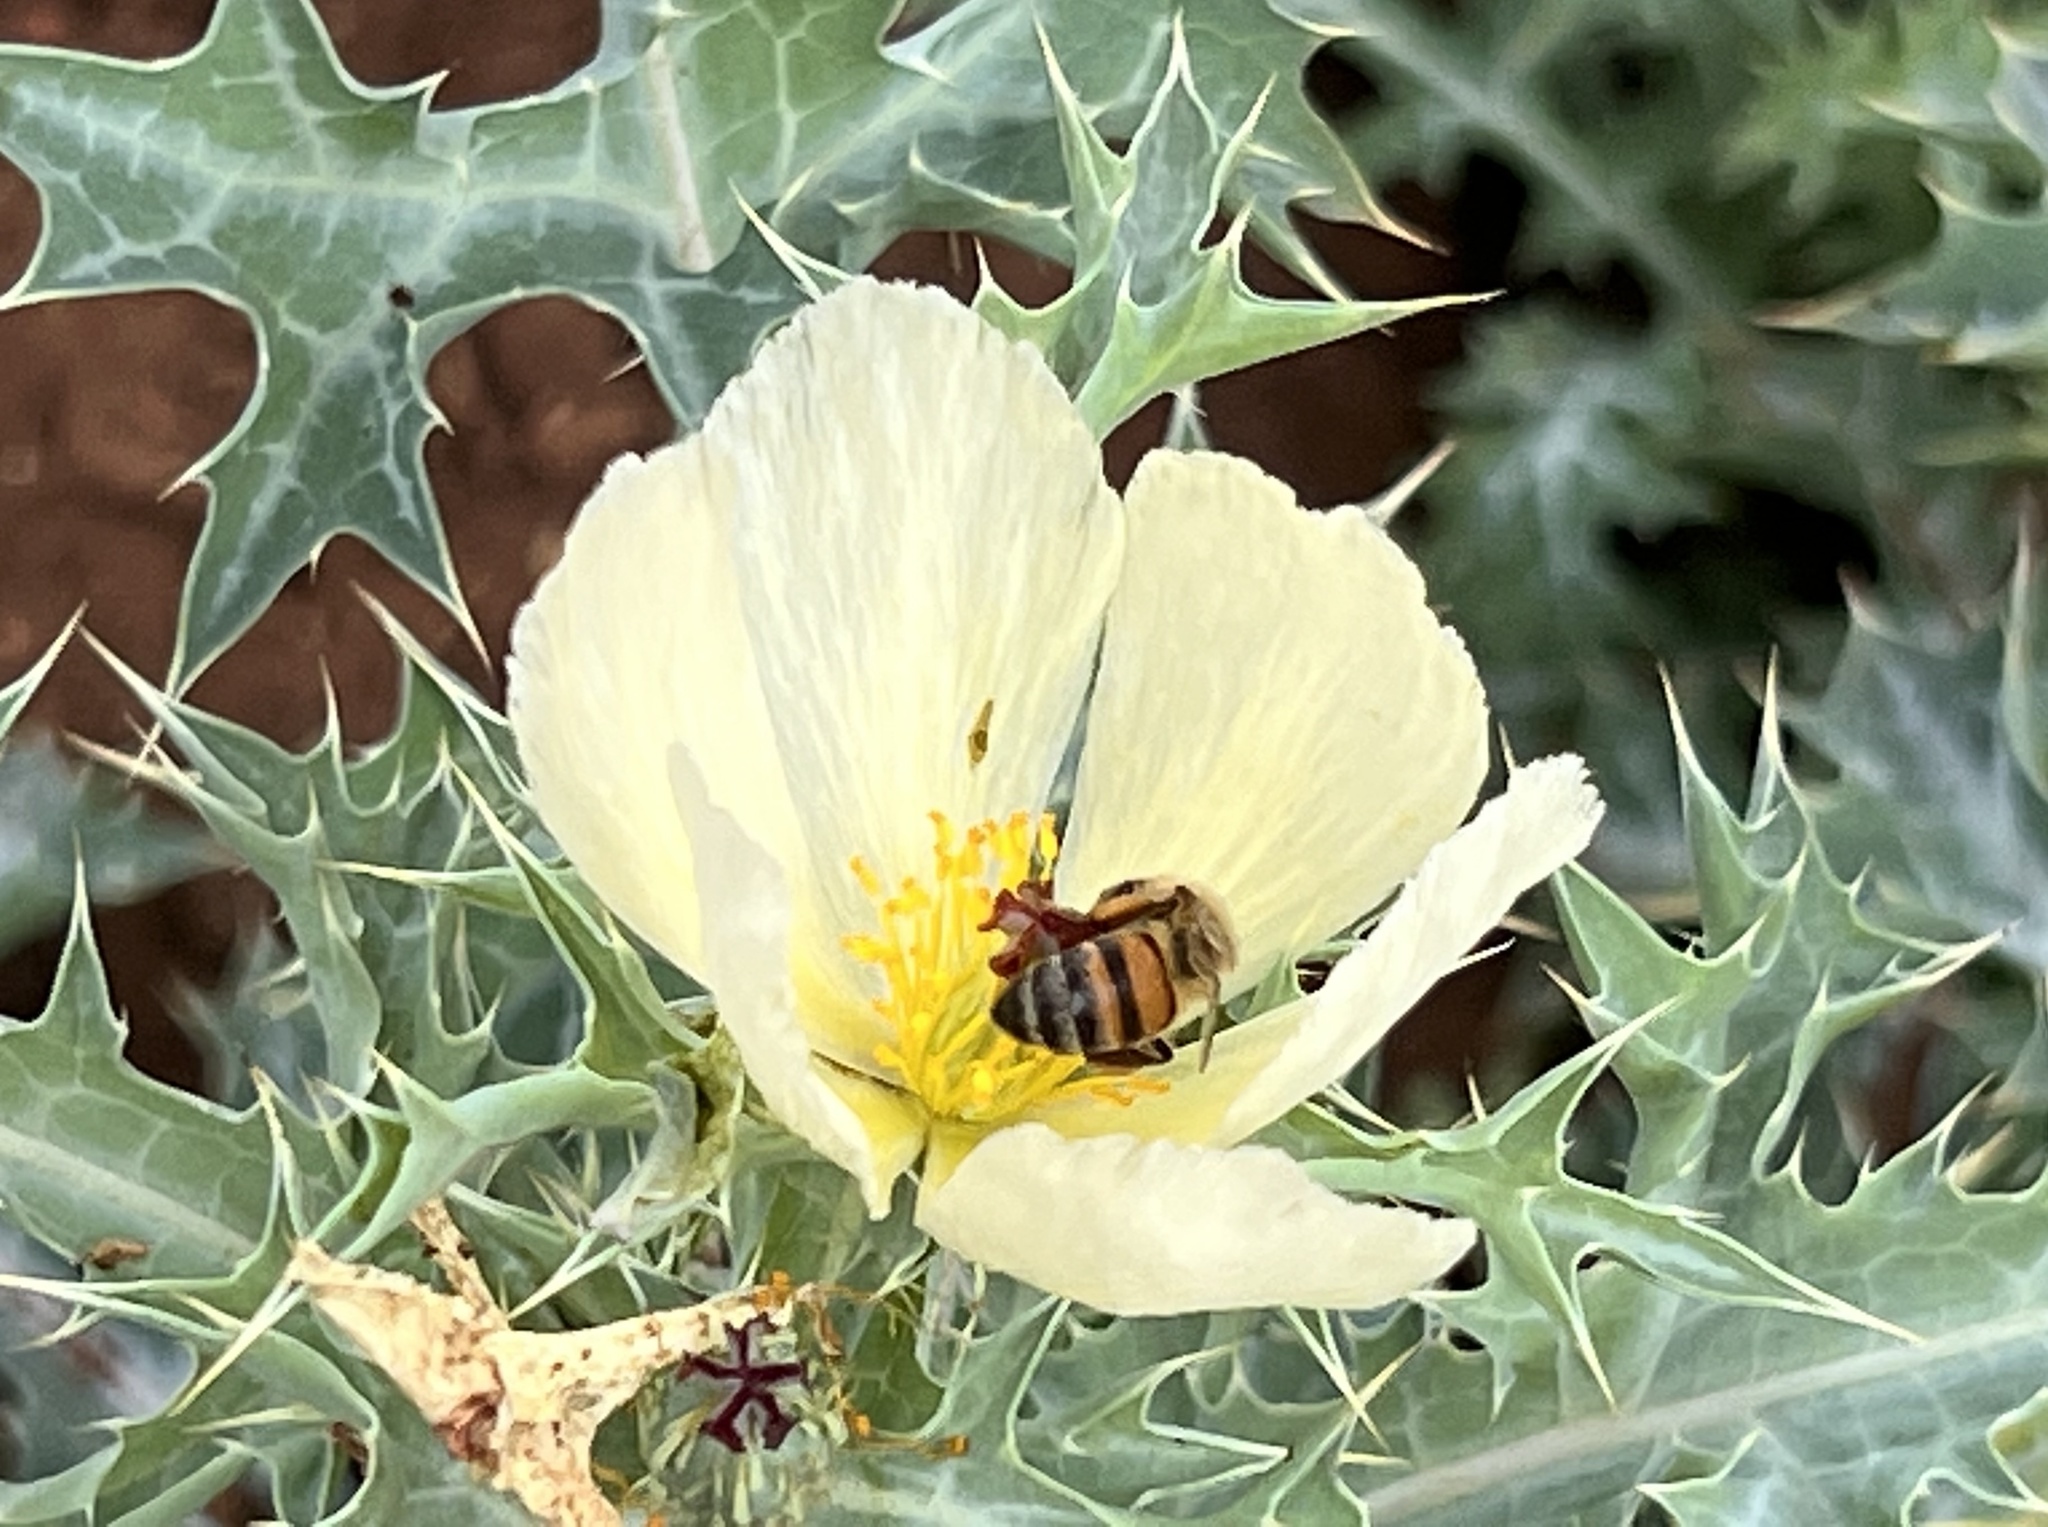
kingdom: Animalia
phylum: Arthropoda
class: Insecta
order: Hymenoptera
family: Apidae
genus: Apis
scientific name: Apis mellifera
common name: Honey bee
